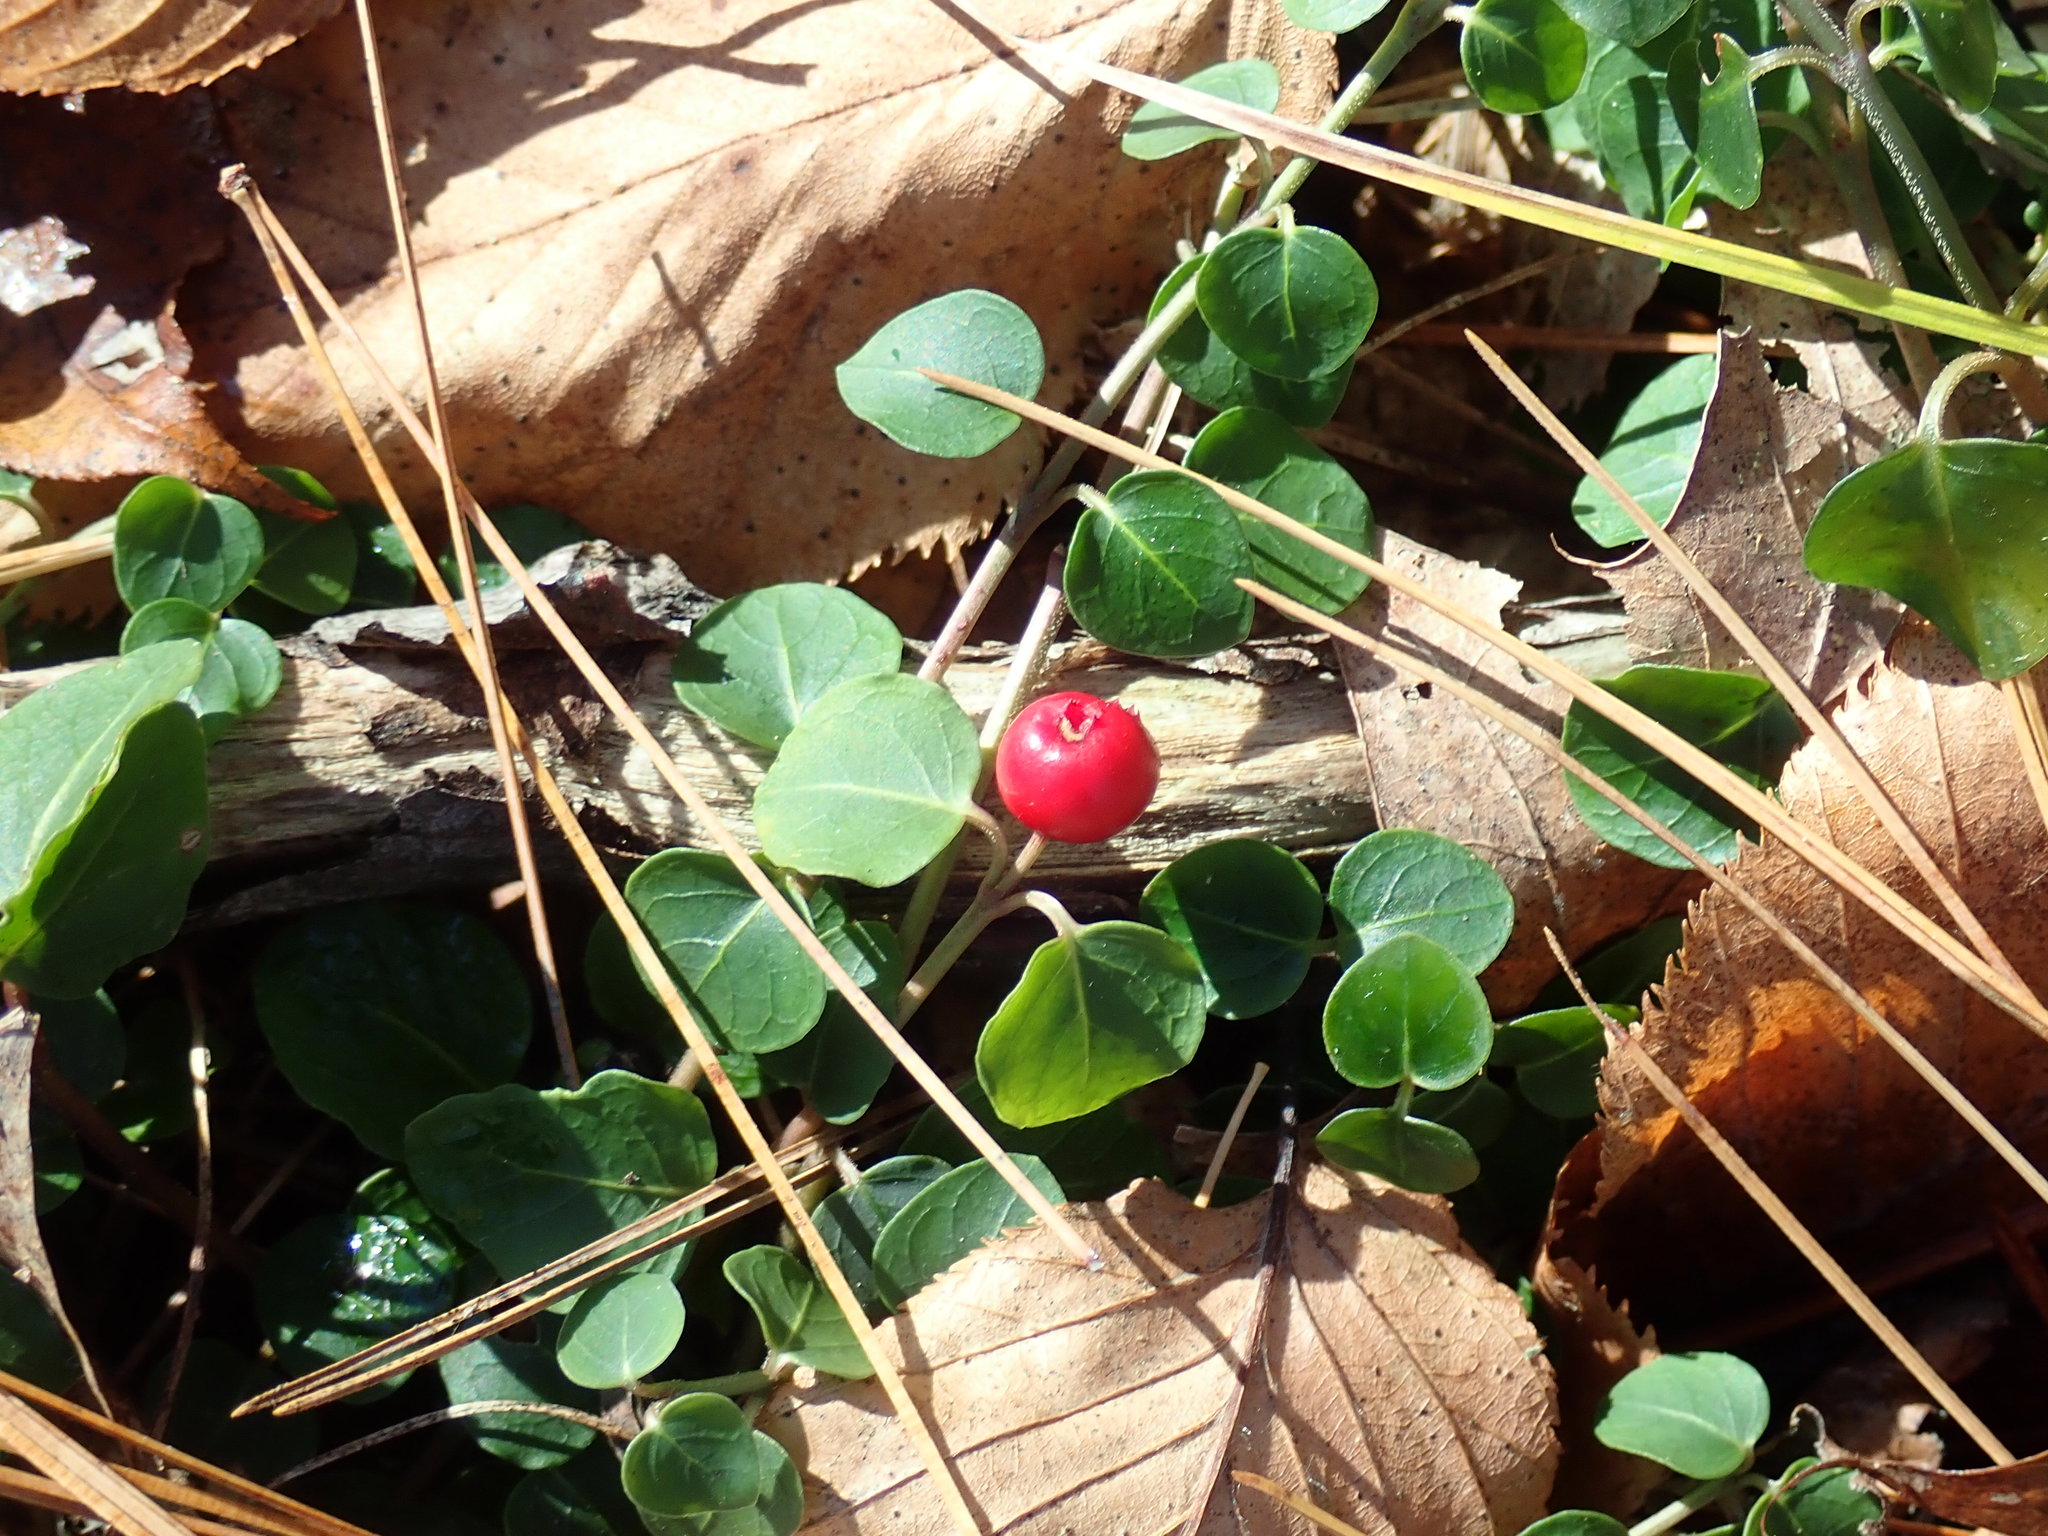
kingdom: Plantae
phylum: Tracheophyta
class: Magnoliopsida
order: Gentianales
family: Rubiaceae
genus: Mitchella
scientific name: Mitchella repens
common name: Partridge-berry
